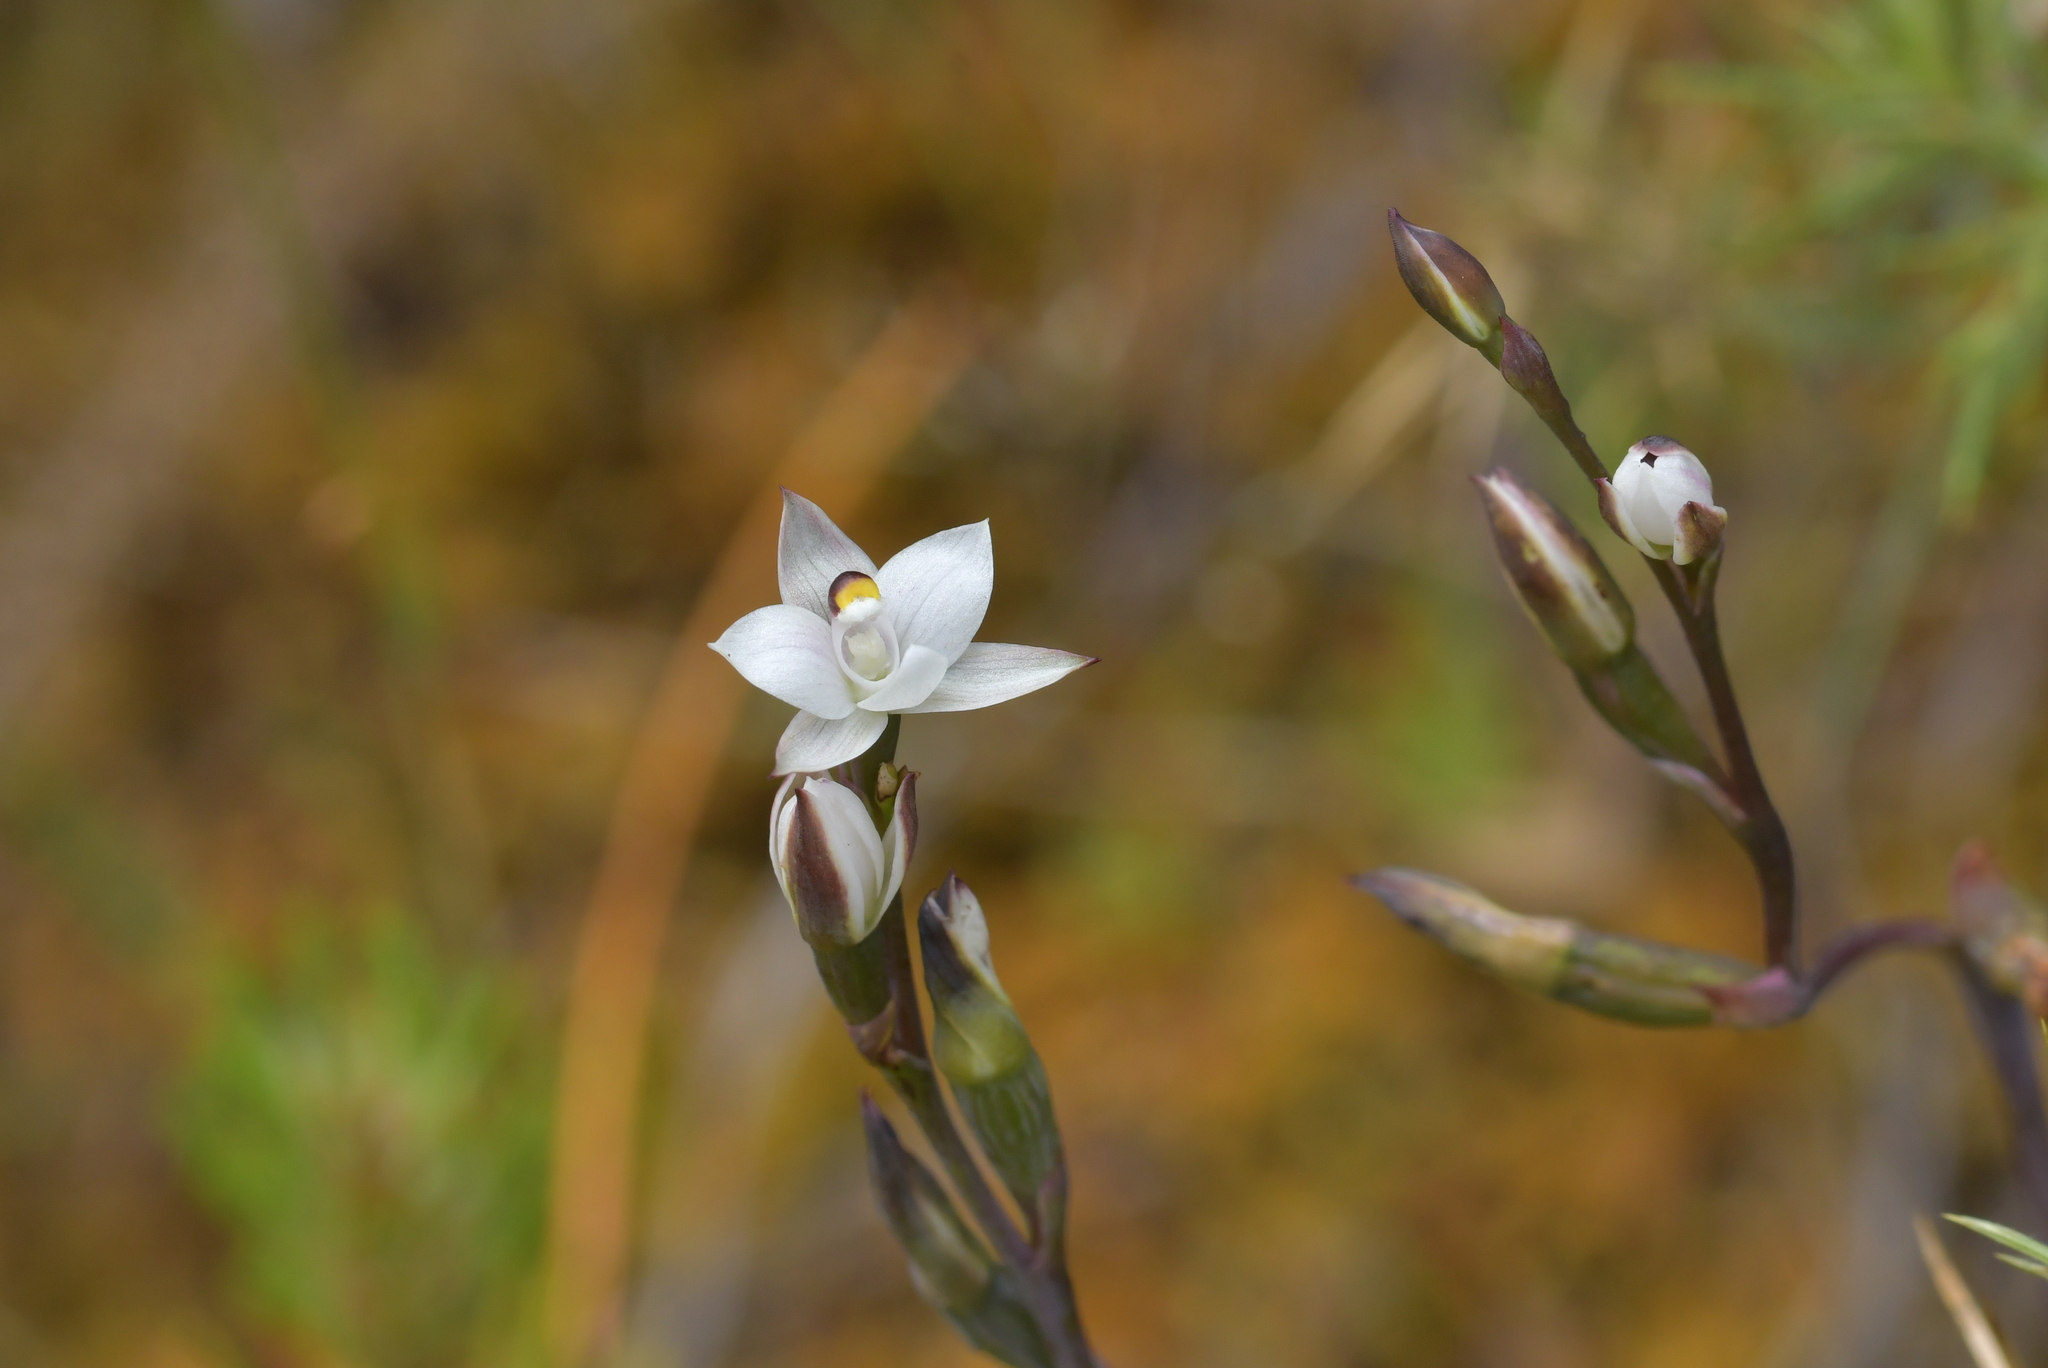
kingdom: Plantae
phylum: Tracheophyta
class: Liliopsida
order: Asparagales
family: Orchidaceae
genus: Thelymitra
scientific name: Thelymitra longifolia
